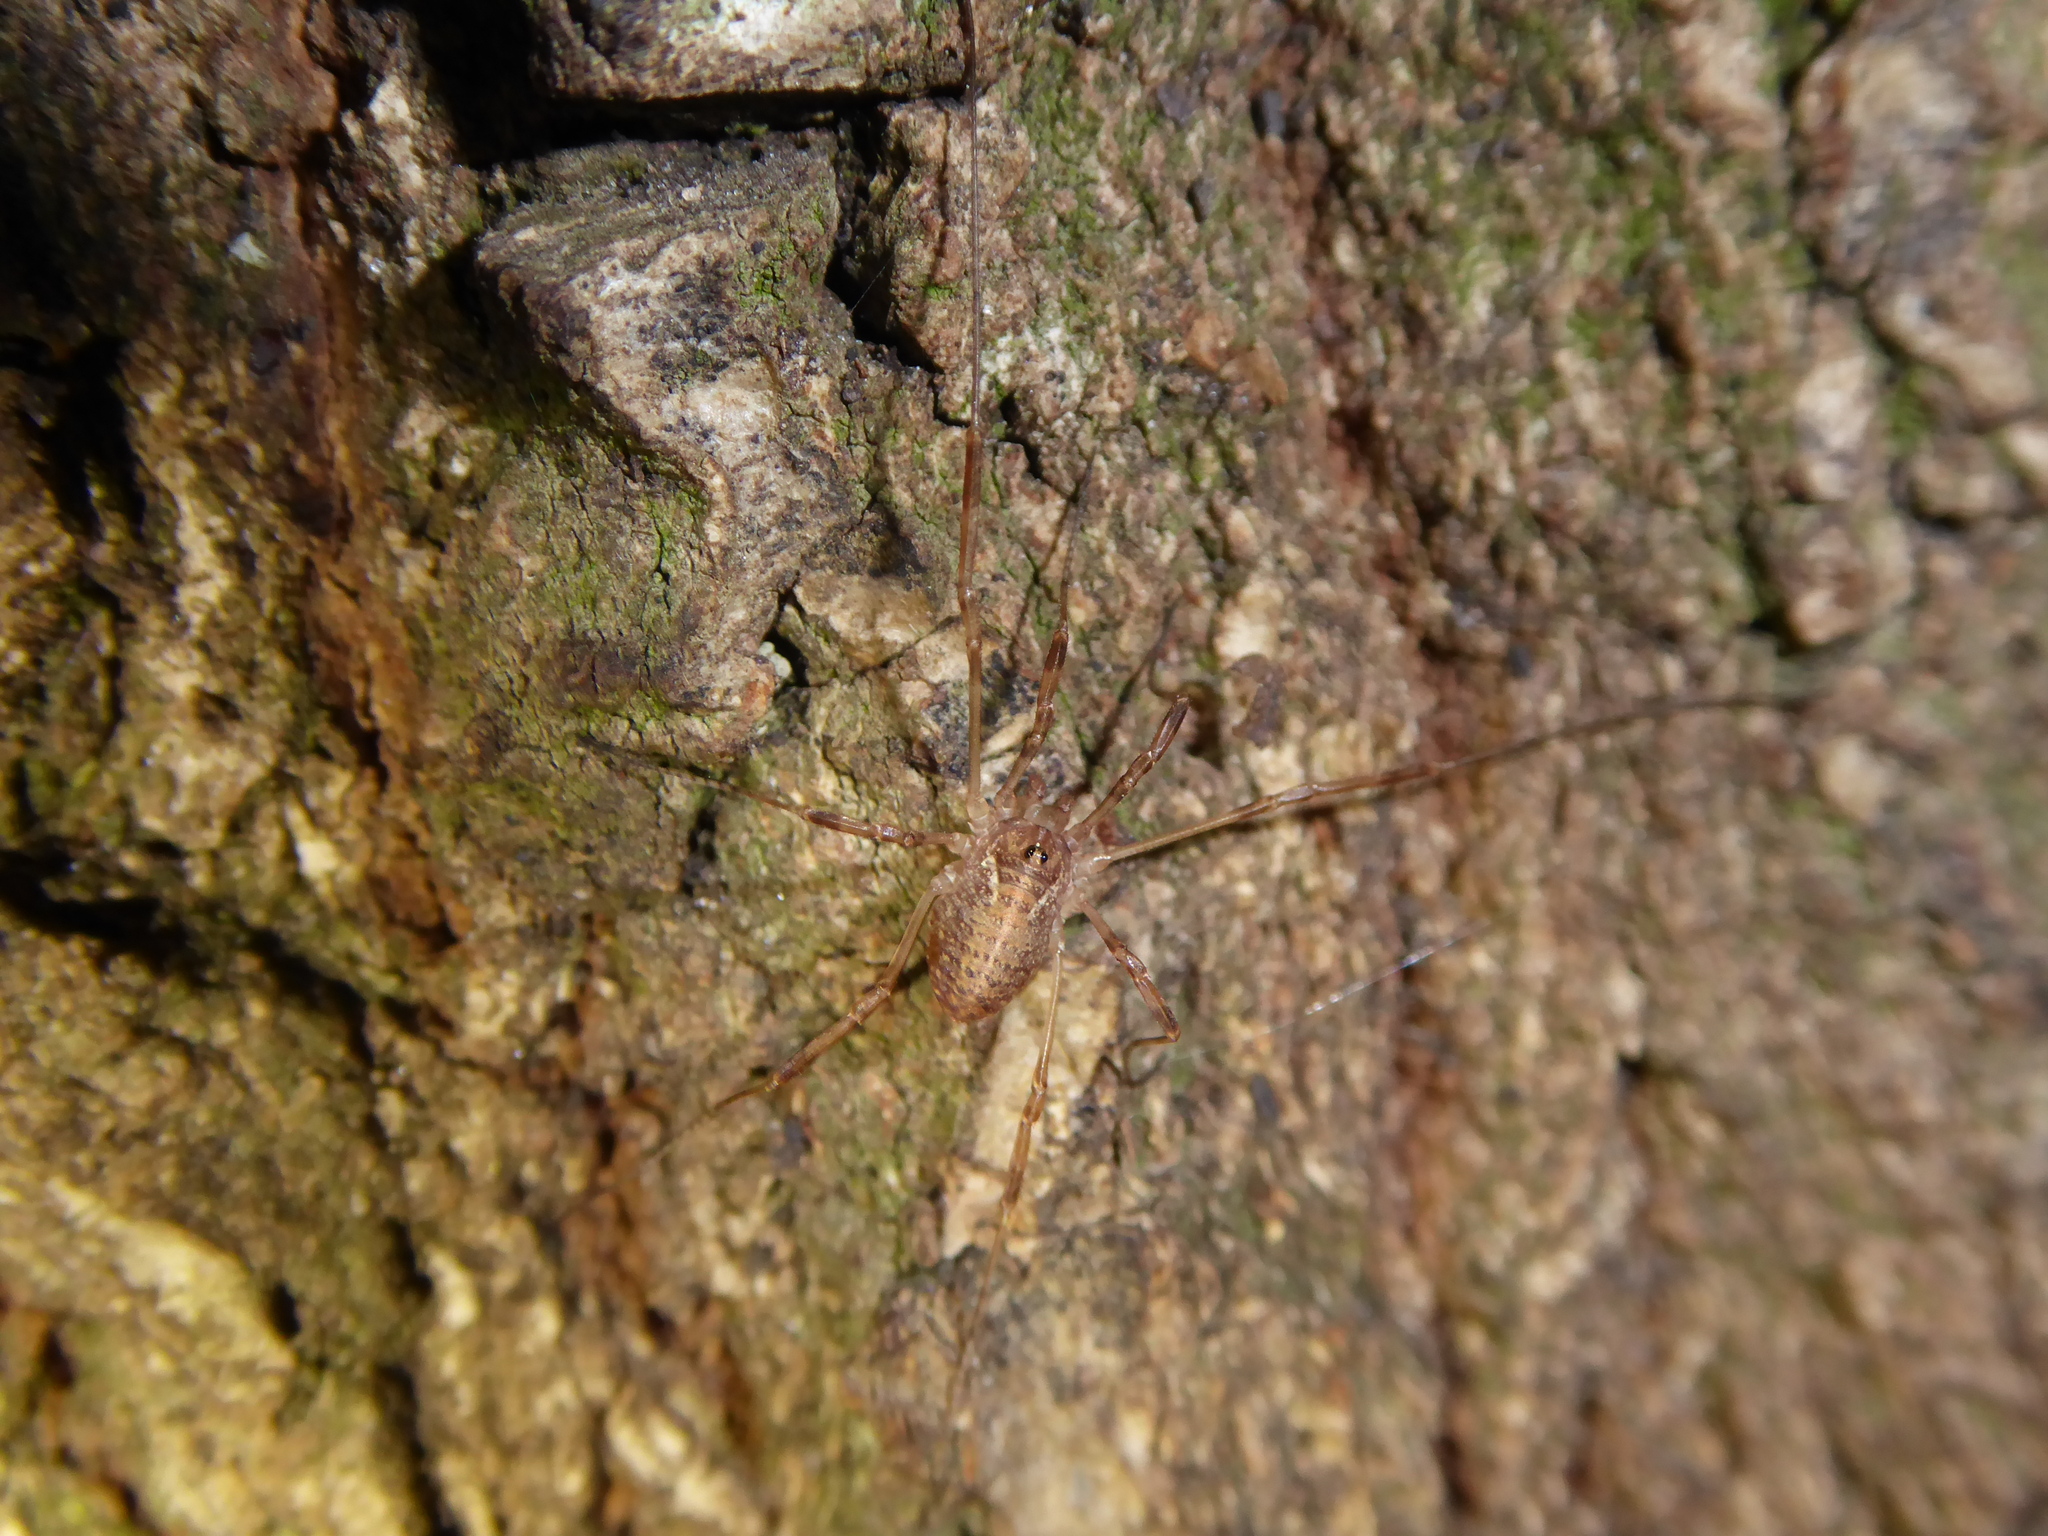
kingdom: Animalia
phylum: Arthropoda
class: Arachnida
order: Opiliones
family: Phalangiidae
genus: Paroligolophus
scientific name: Paroligolophus agrestis
